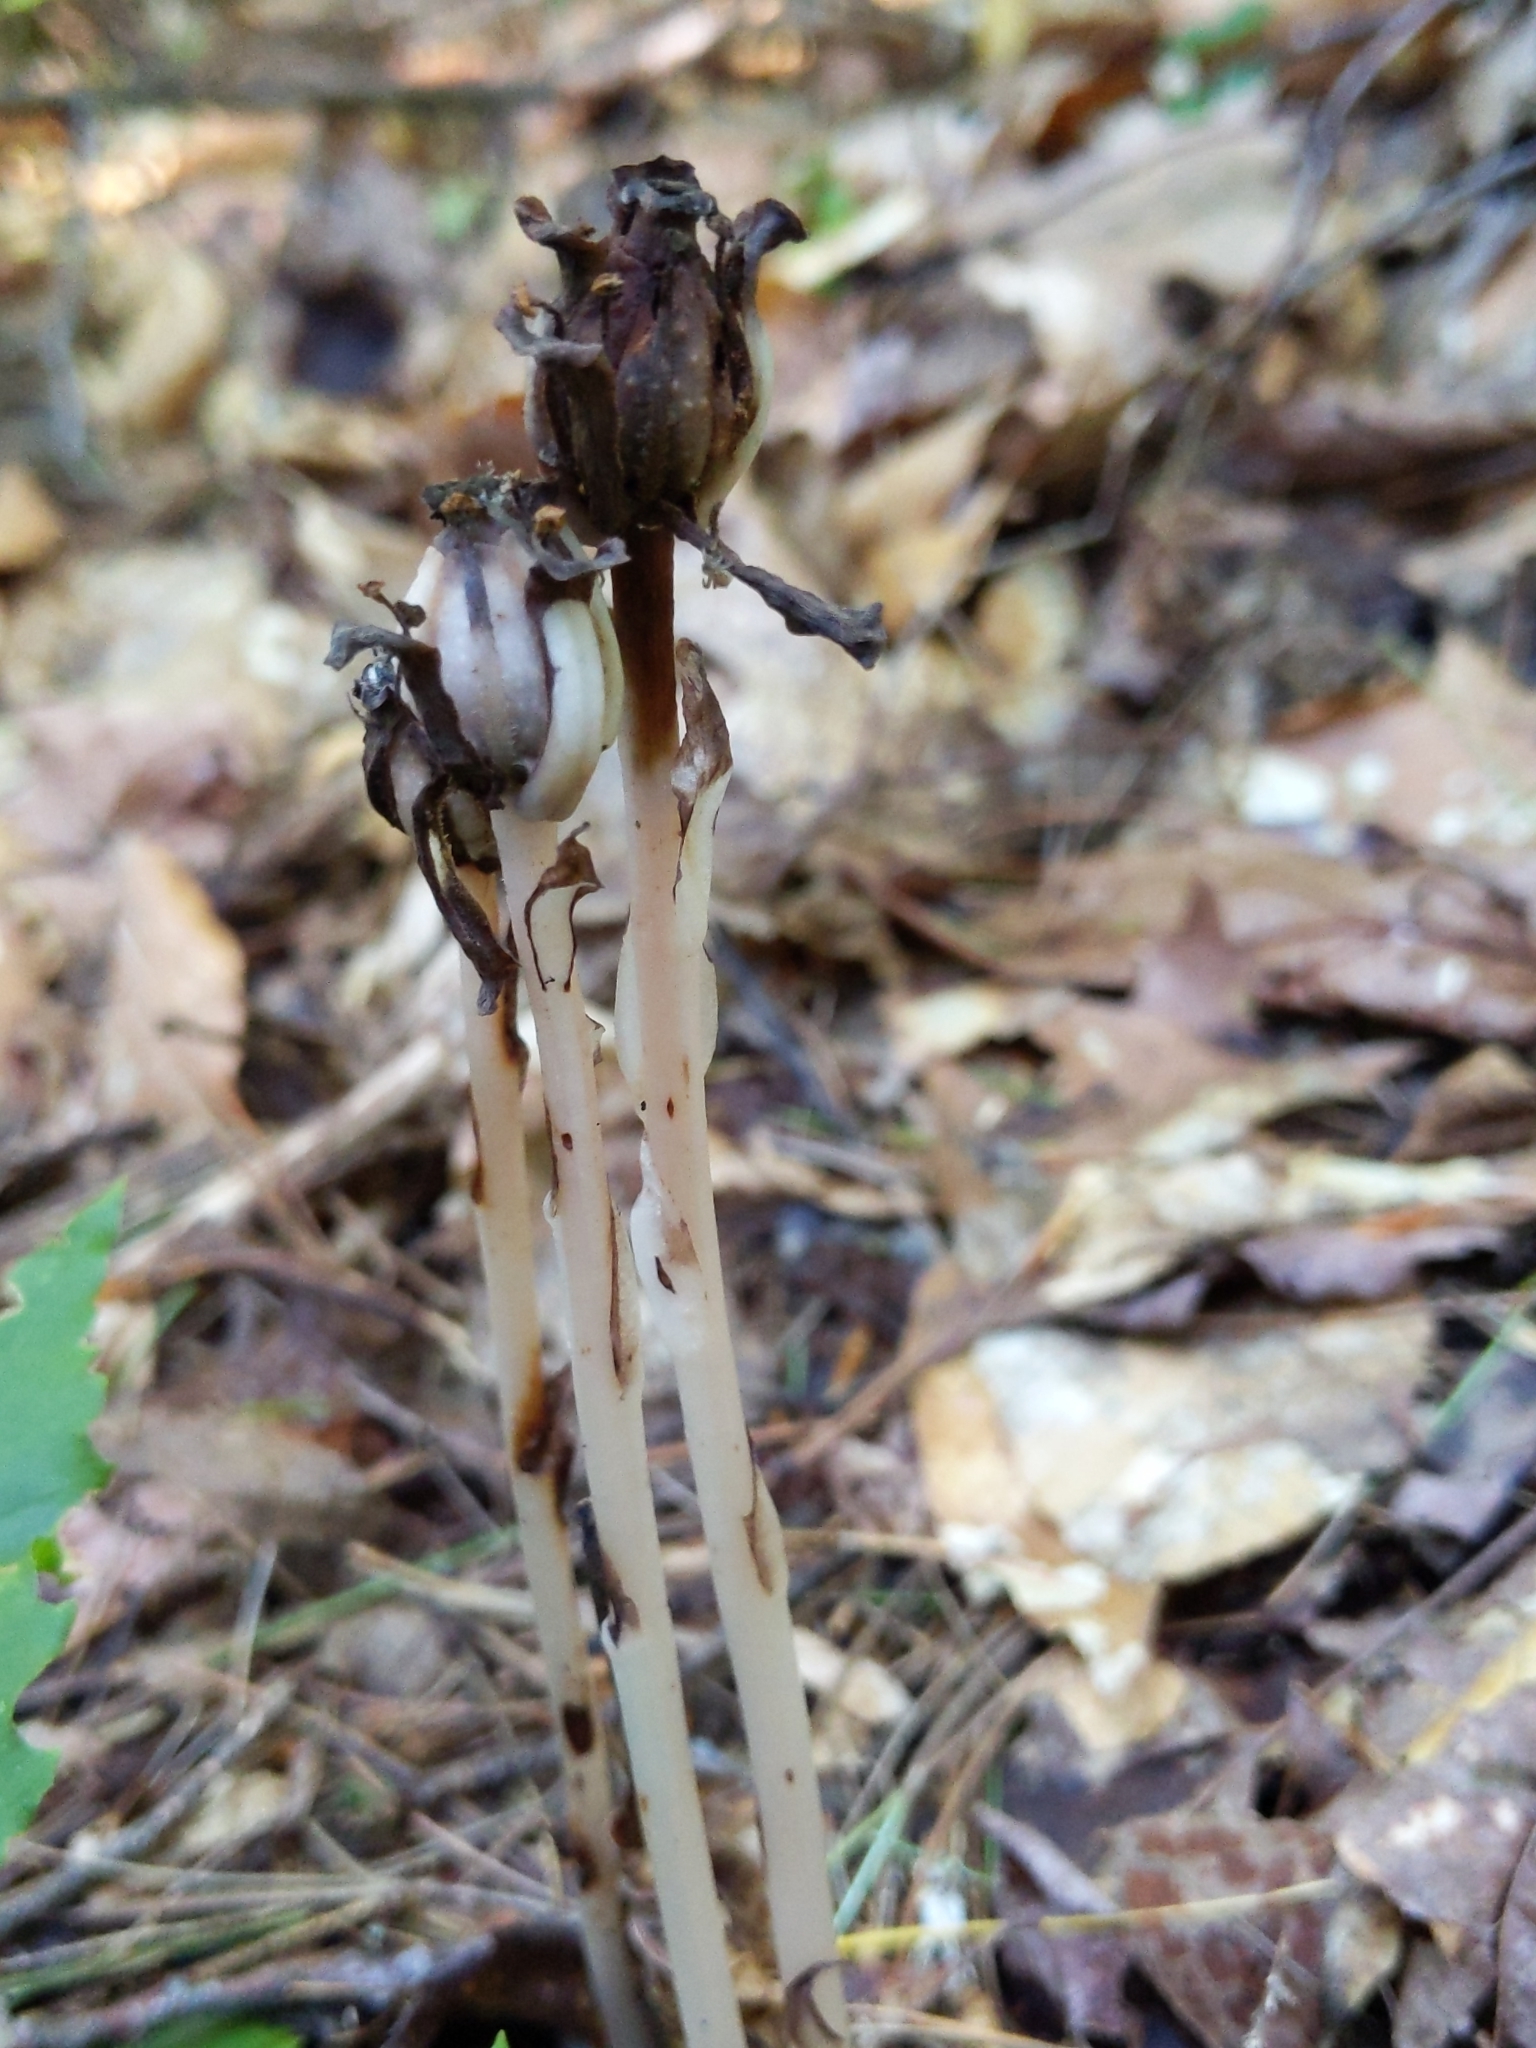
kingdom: Plantae
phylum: Tracheophyta
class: Magnoliopsida
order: Ericales
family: Ericaceae
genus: Monotropa
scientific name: Monotropa uniflora
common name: Convulsion root
